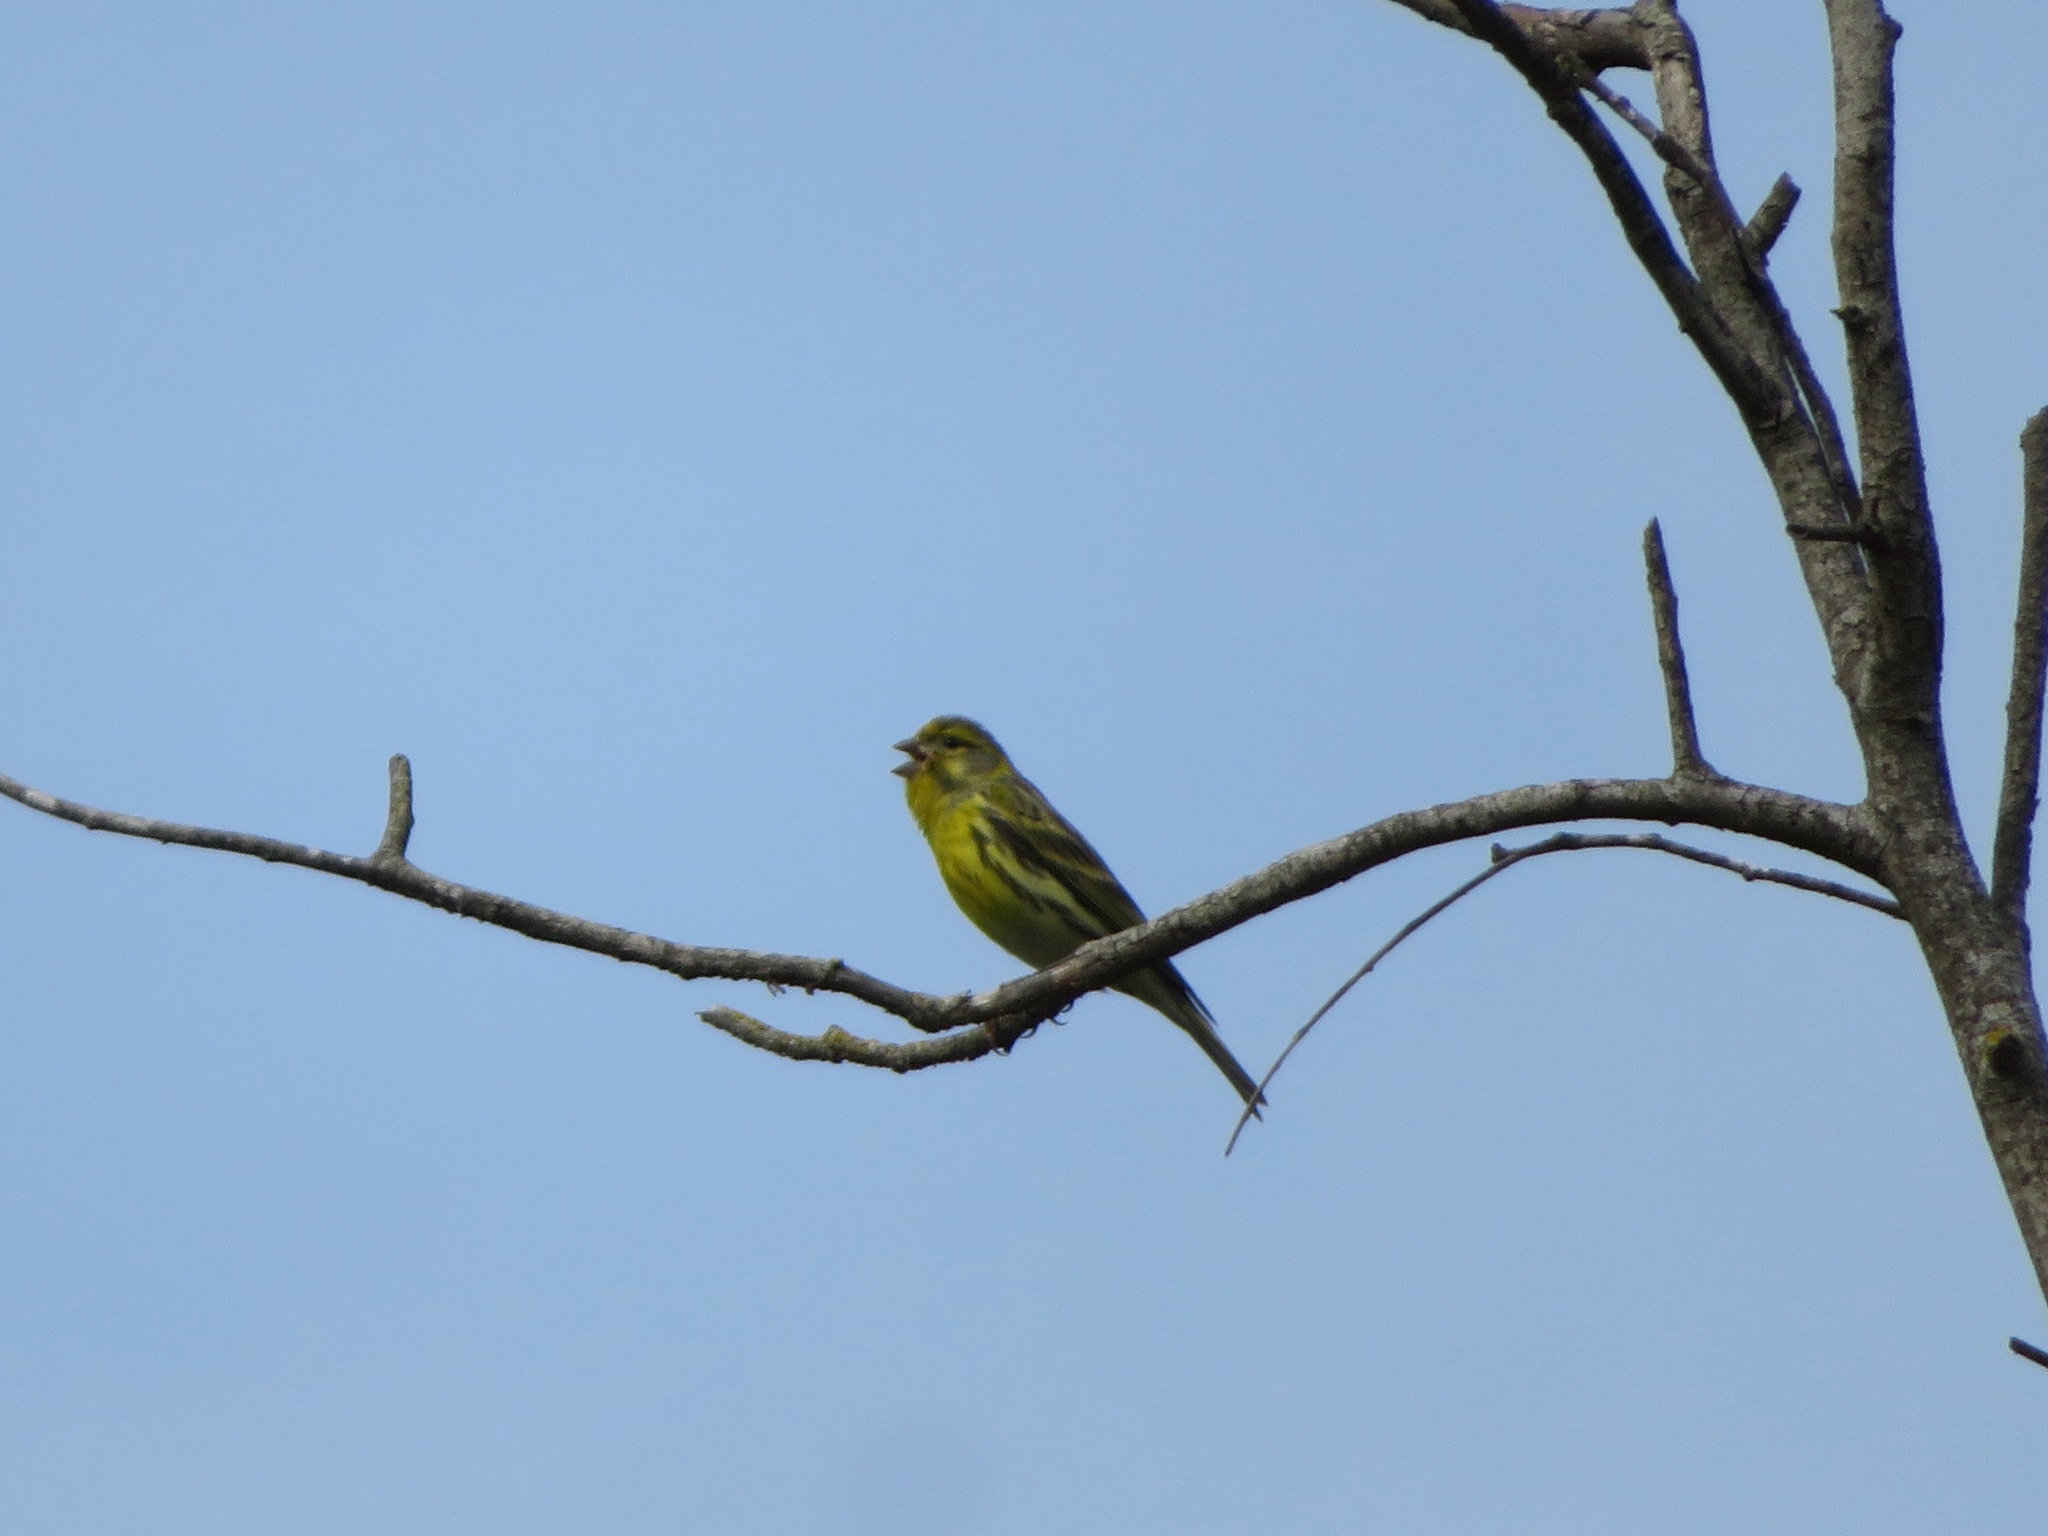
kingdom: Animalia
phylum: Chordata
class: Aves
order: Passeriformes
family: Fringillidae
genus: Serinus
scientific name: Serinus serinus
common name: European serin
